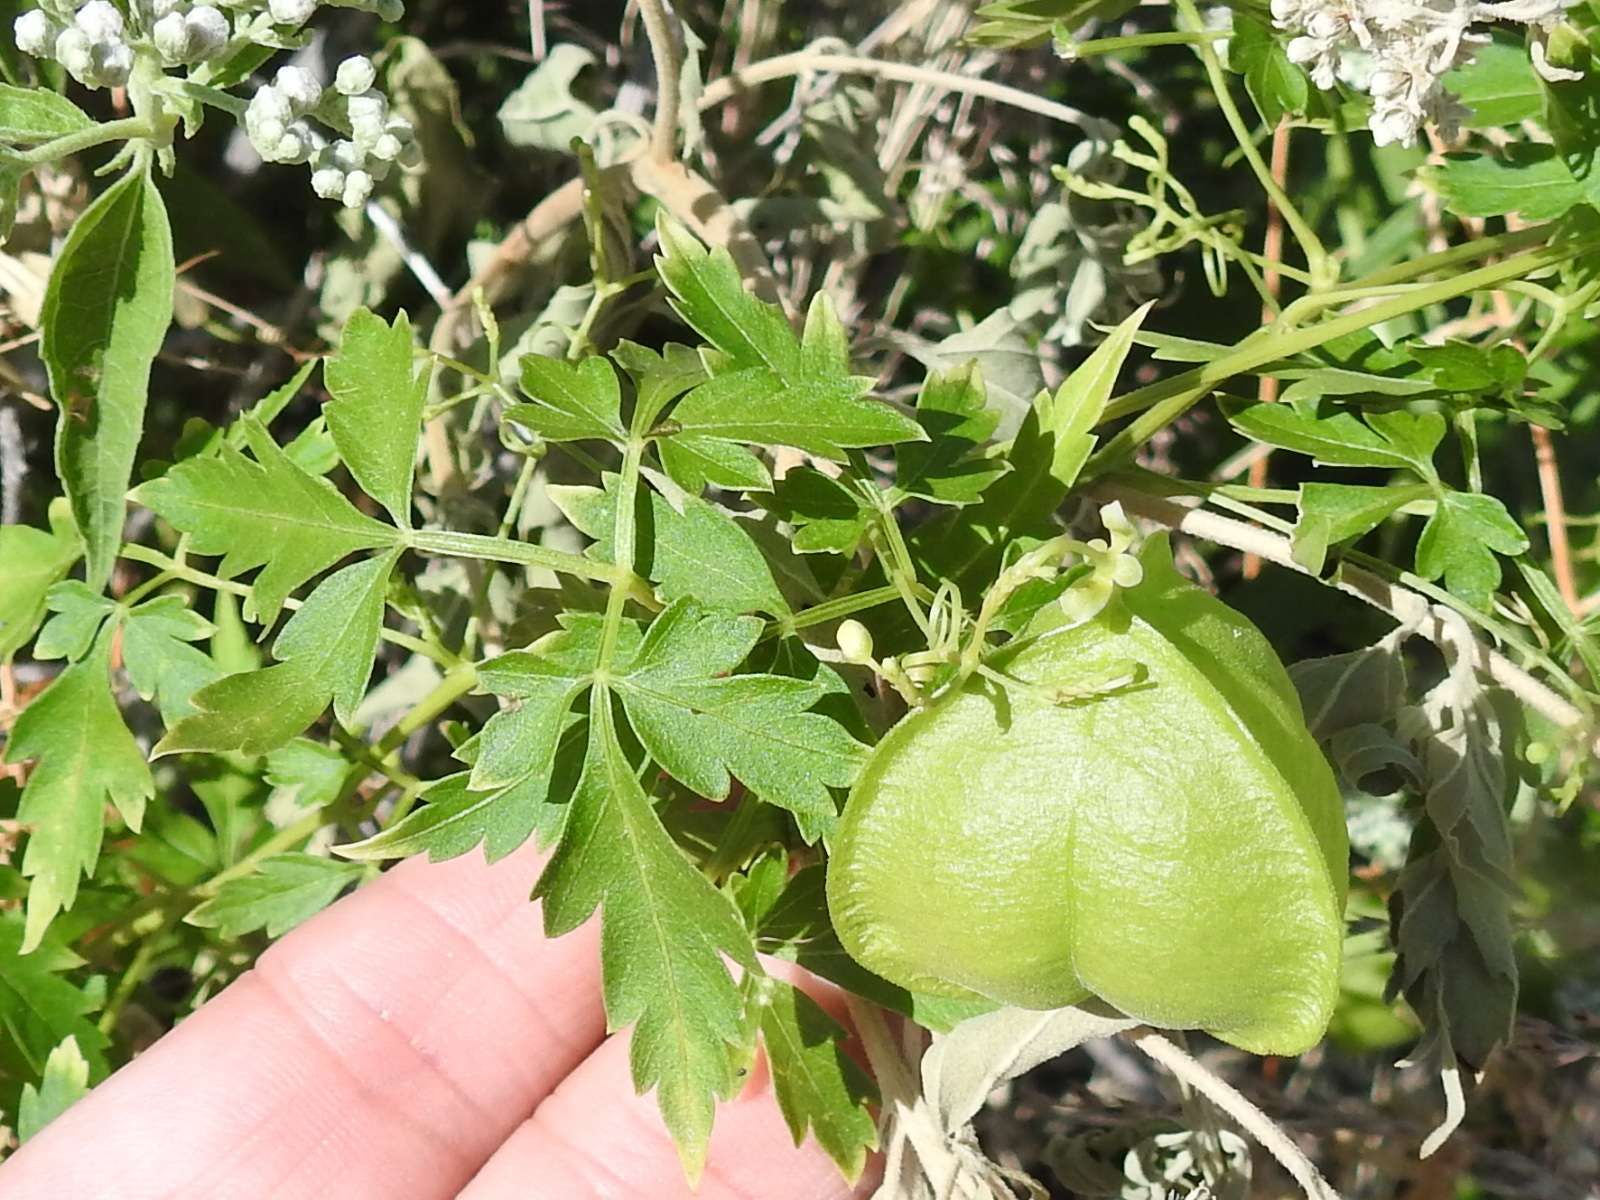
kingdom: Plantae
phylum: Tracheophyta
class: Magnoliopsida
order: Sapindales
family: Sapindaceae
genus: Cardiospermum
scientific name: Cardiospermum halicacabum
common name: Balloon vine
